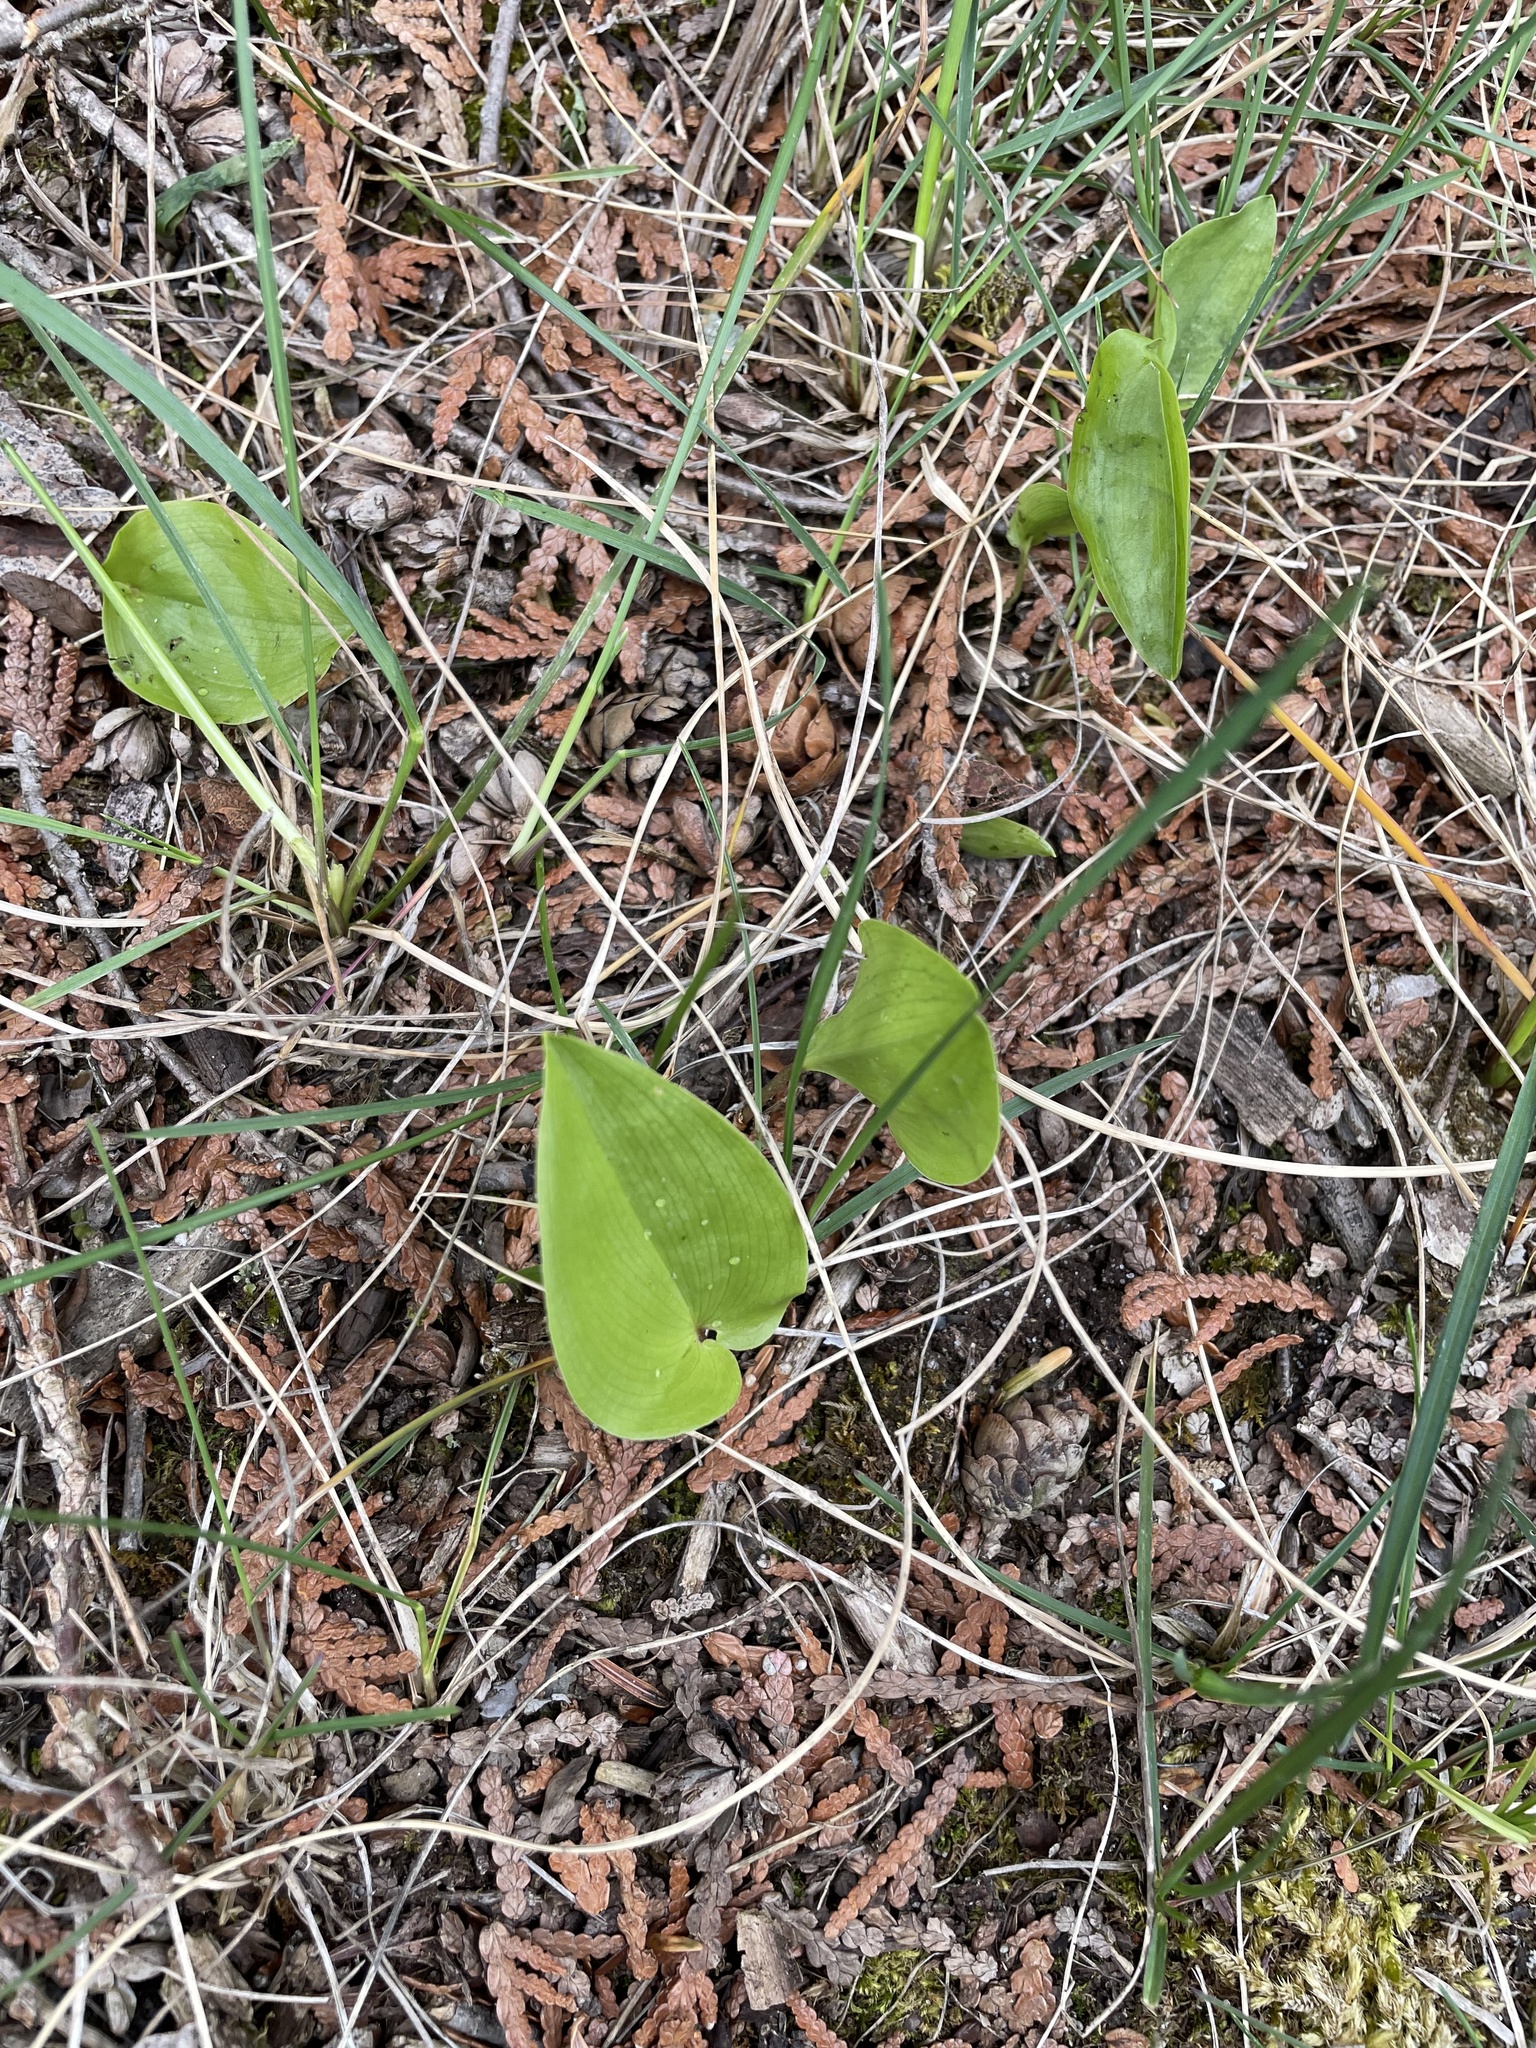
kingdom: Plantae
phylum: Tracheophyta
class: Liliopsida
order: Asparagales
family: Asparagaceae
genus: Maianthemum
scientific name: Maianthemum canadense
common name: False lily-of-the-valley
